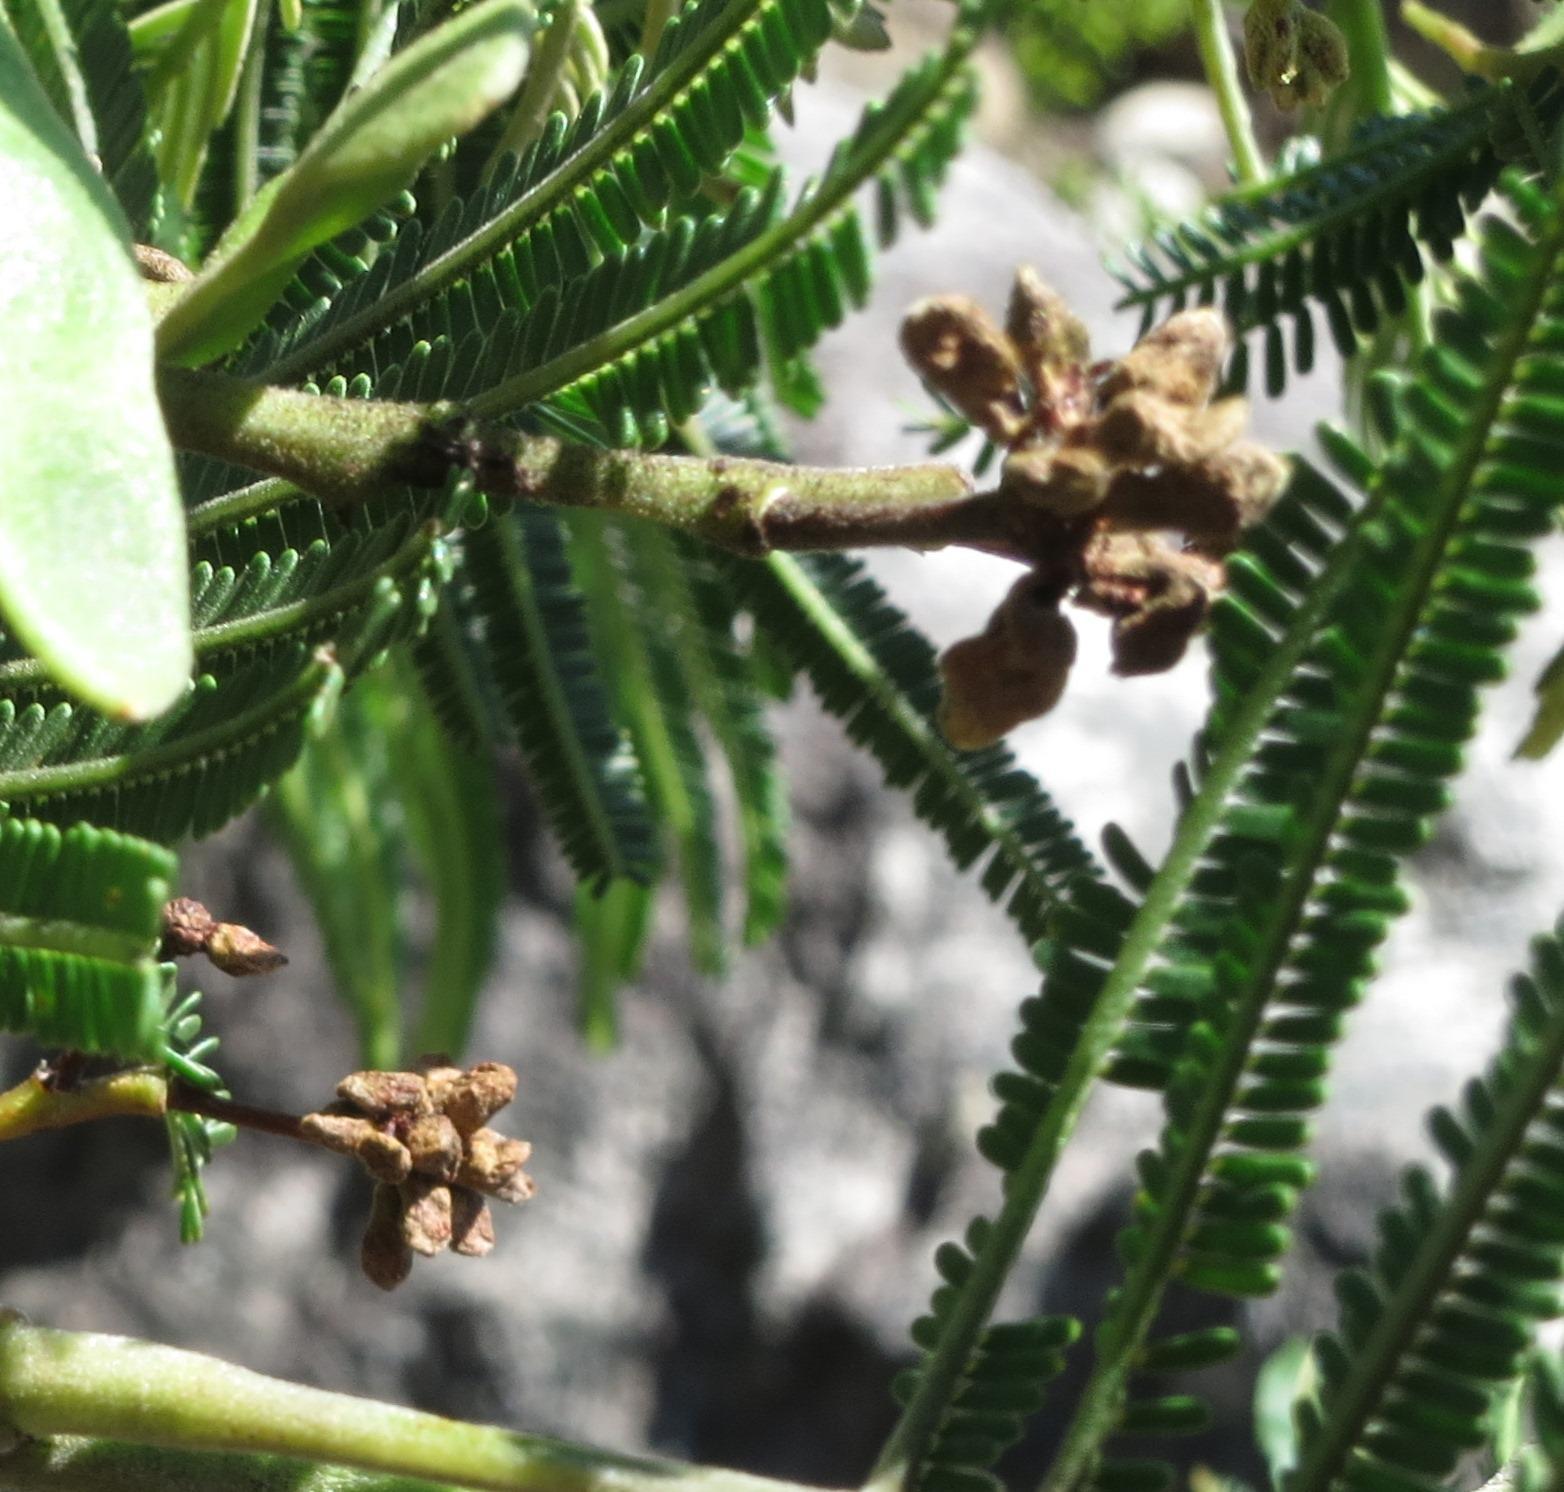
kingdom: Animalia
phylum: Arthropoda
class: Insecta
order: Diptera
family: Cecidomyiidae
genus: Dasineura
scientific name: Dasineura rubiformis
